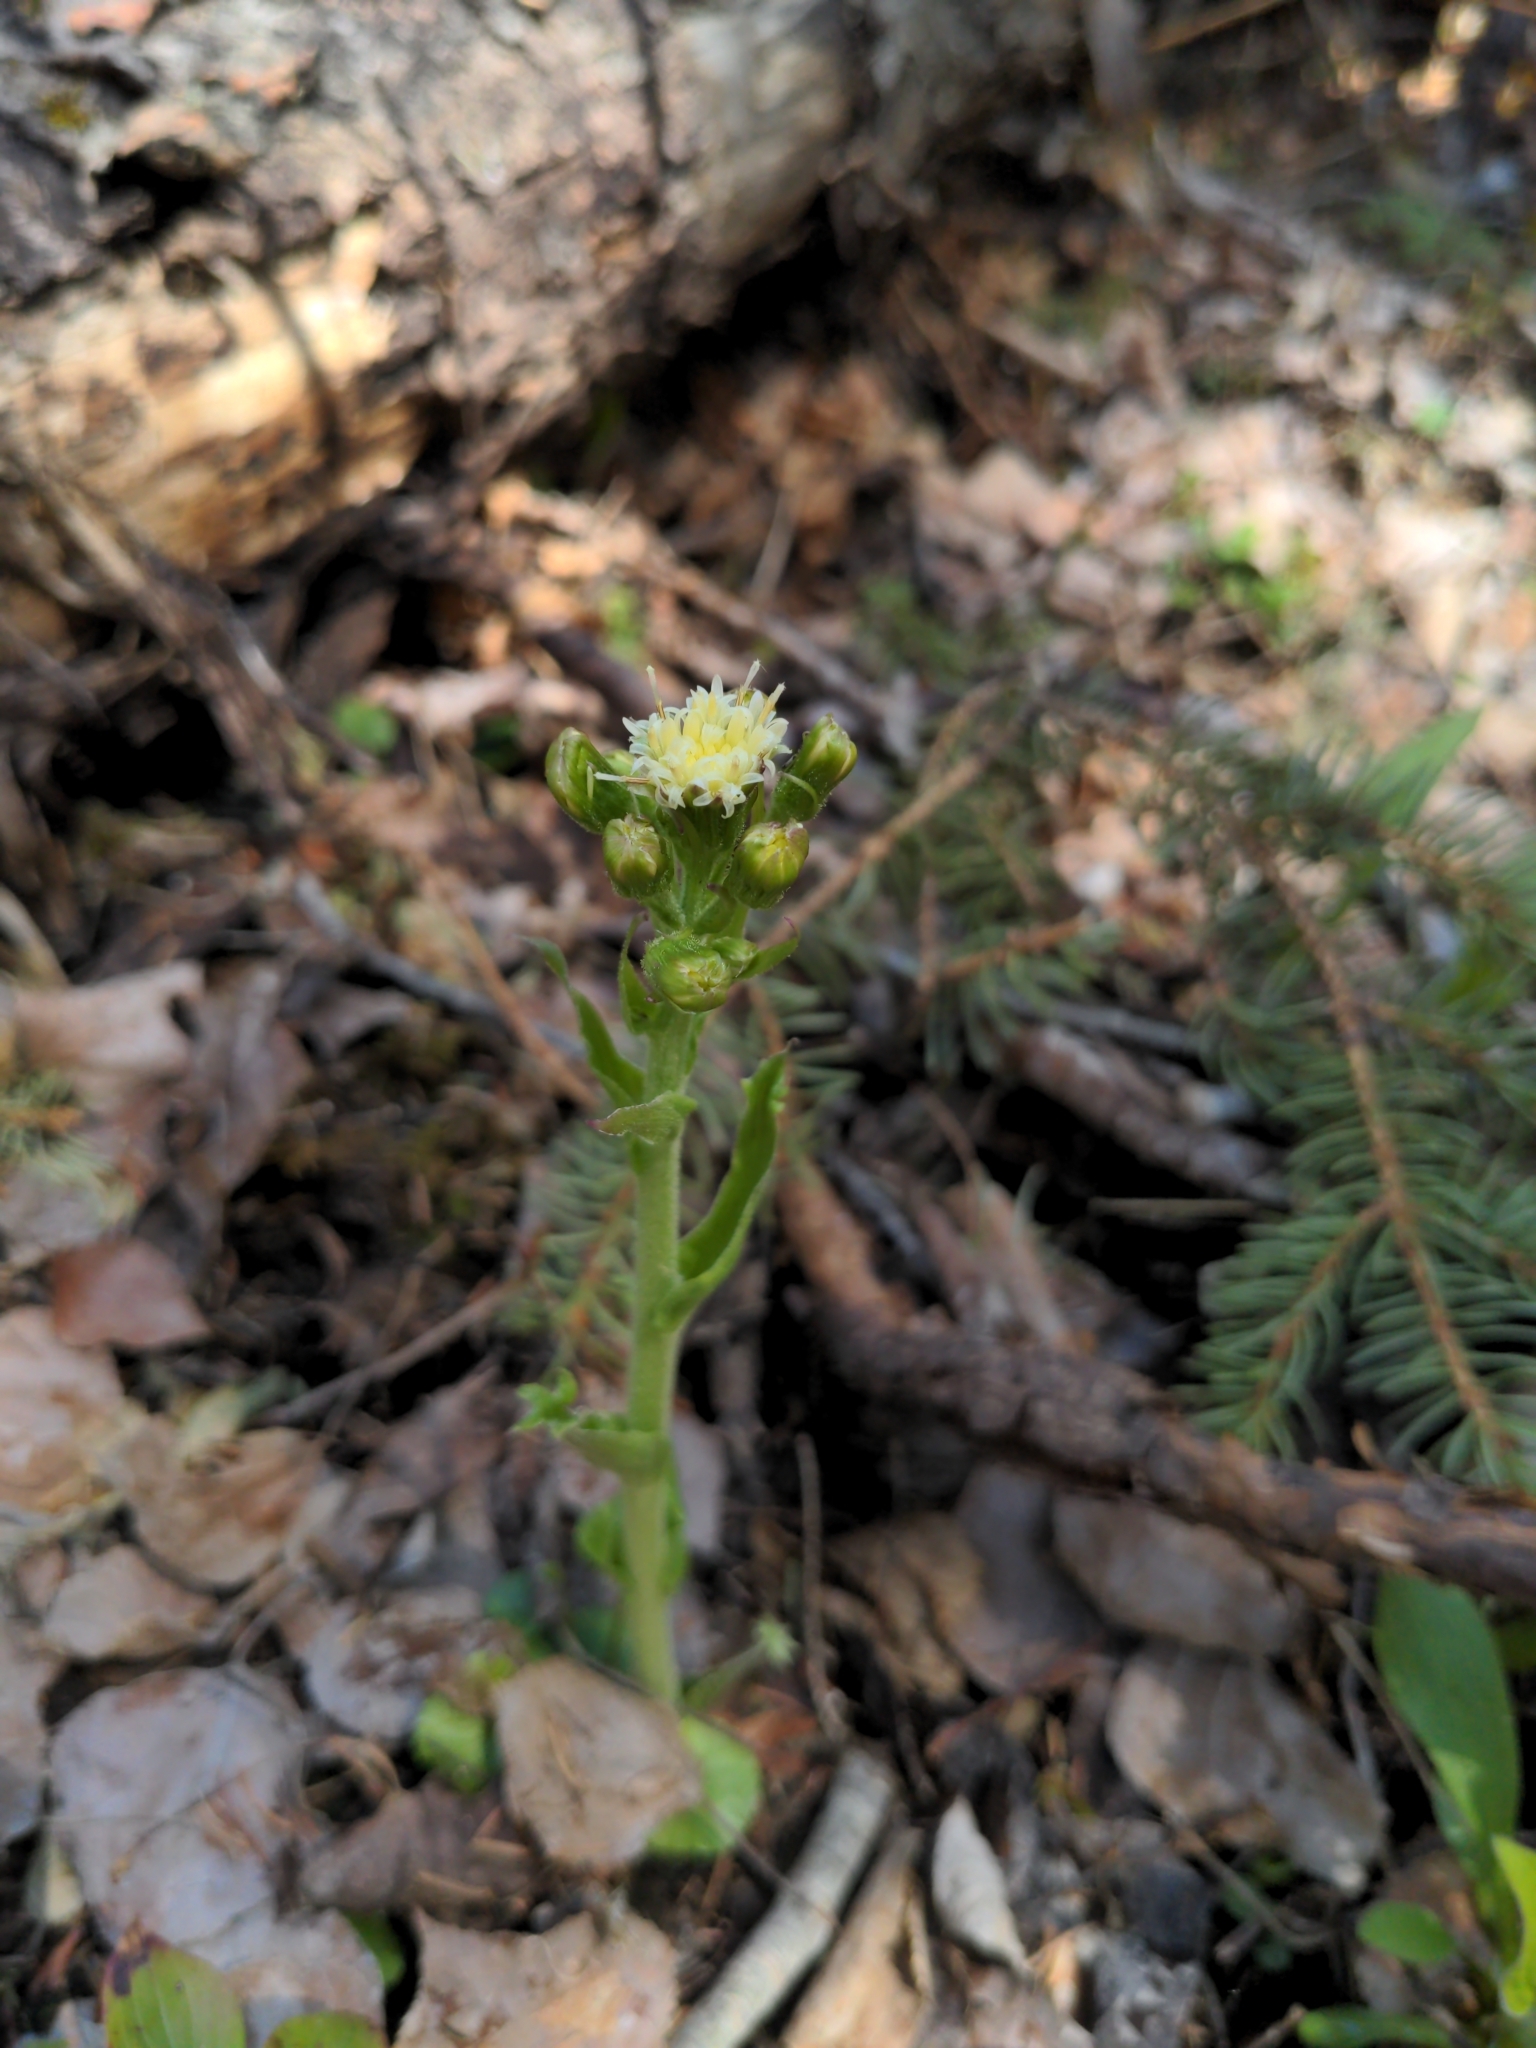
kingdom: Plantae
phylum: Tracheophyta
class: Magnoliopsida
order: Asterales
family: Asteraceae
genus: Petasites
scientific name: Petasites frigidus
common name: Arctic butterbur
